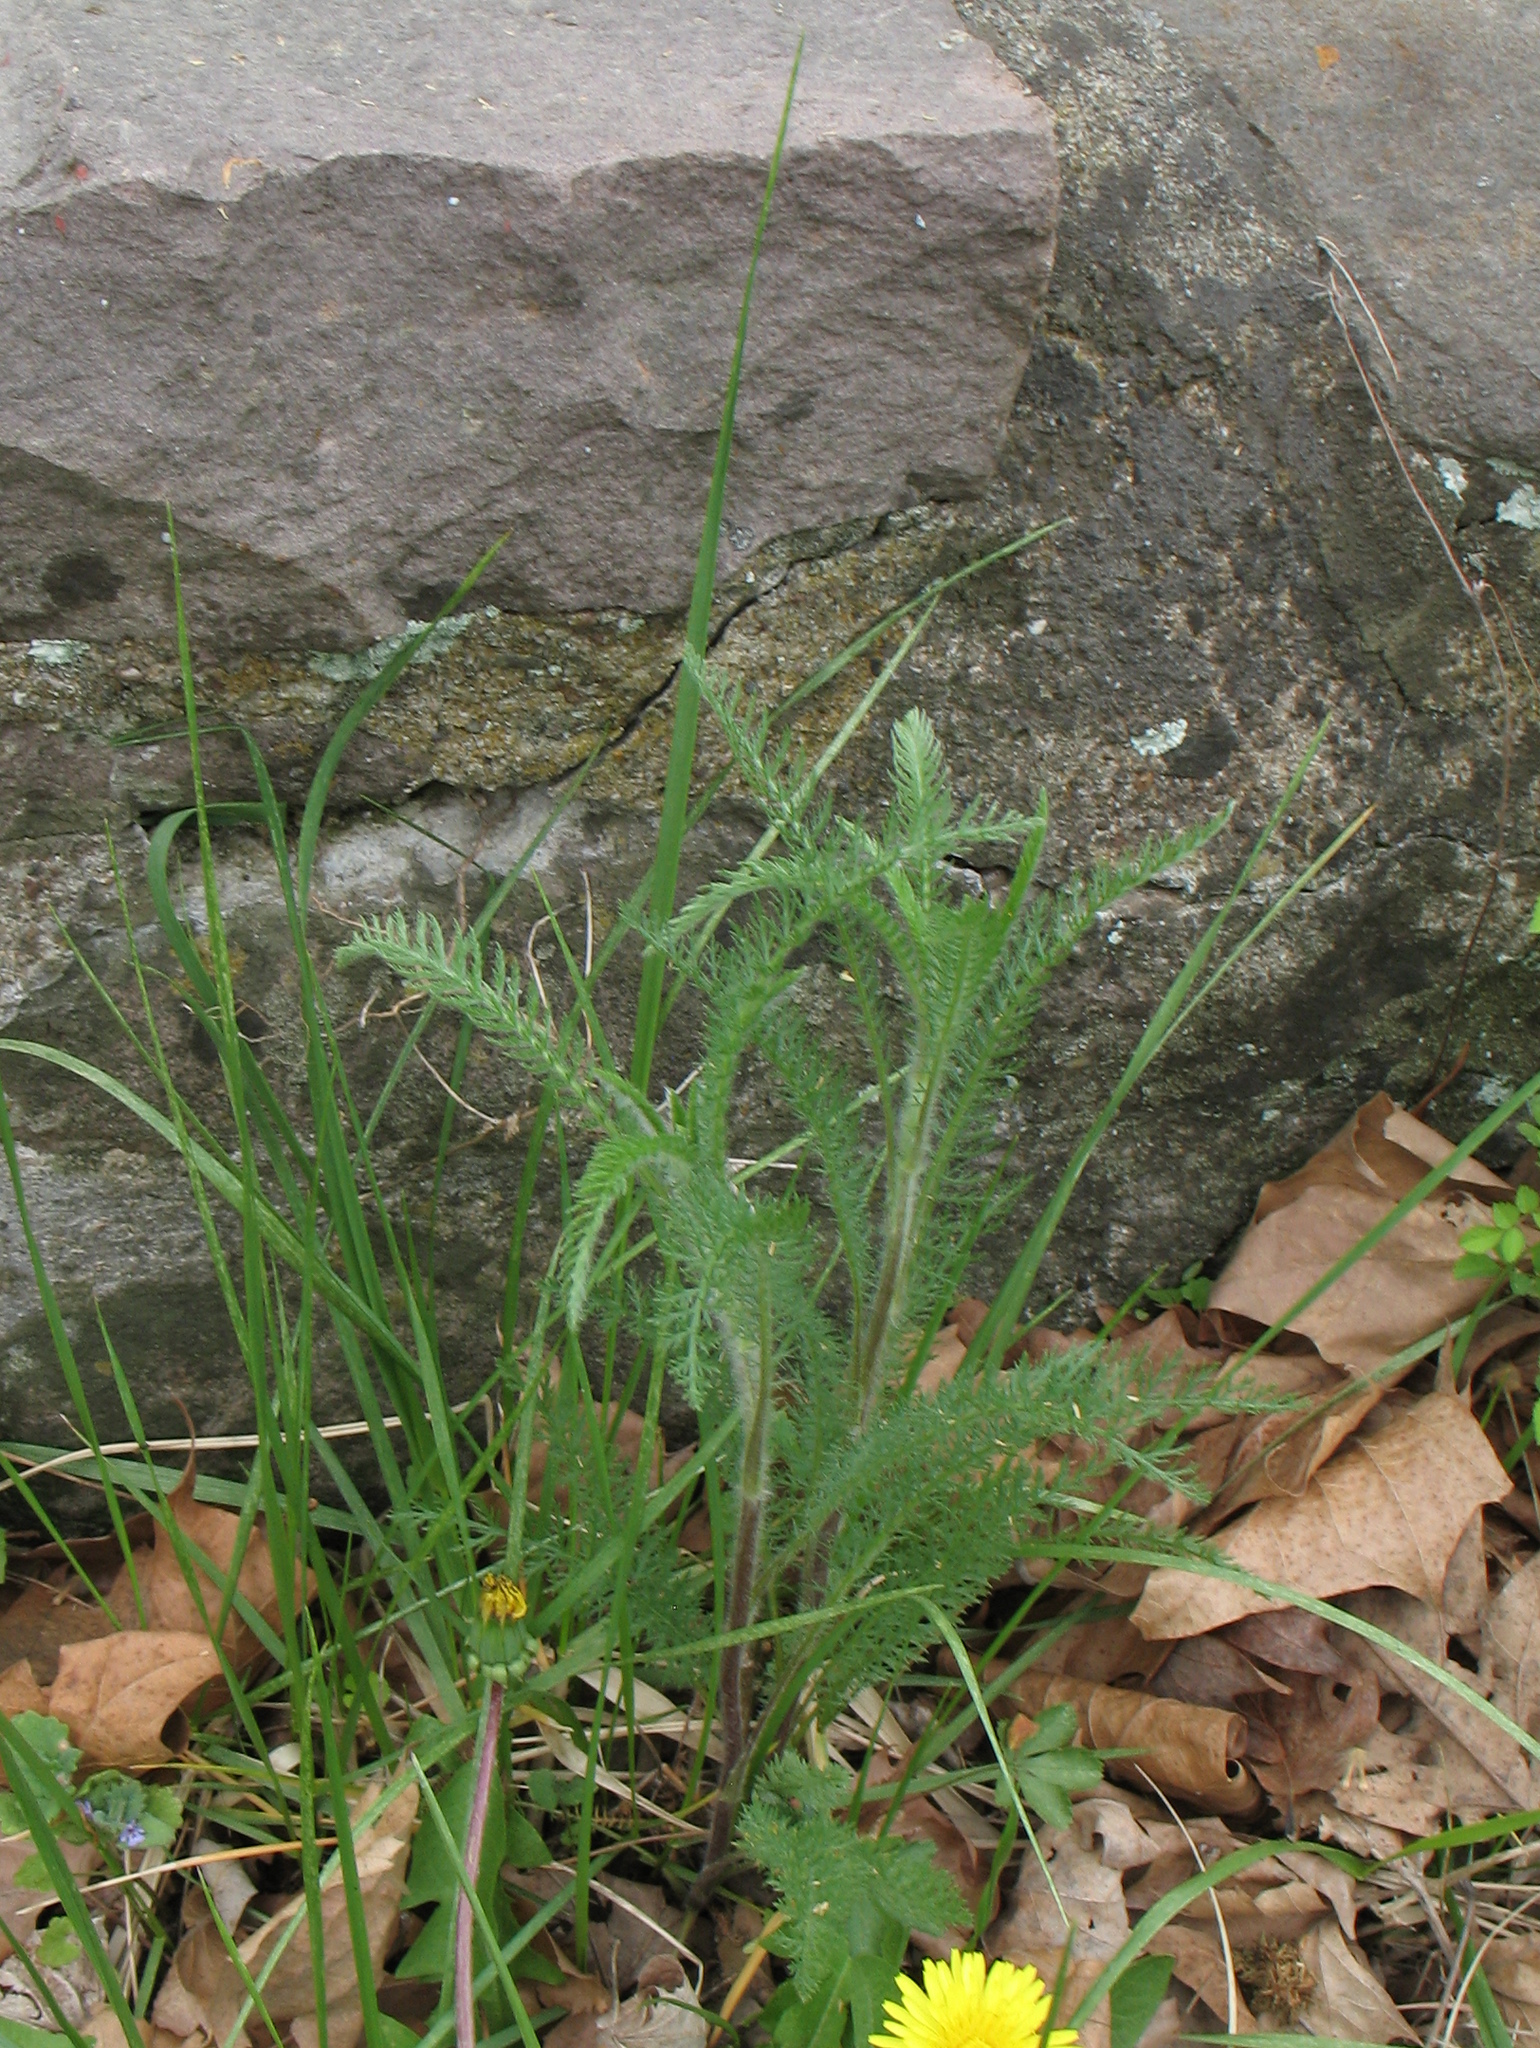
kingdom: Plantae
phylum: Tracheophyta
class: Magnoliopsida
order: Asterales
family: Asteraceae
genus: Achillea
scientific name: Achillea millefolium
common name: Yarrow
